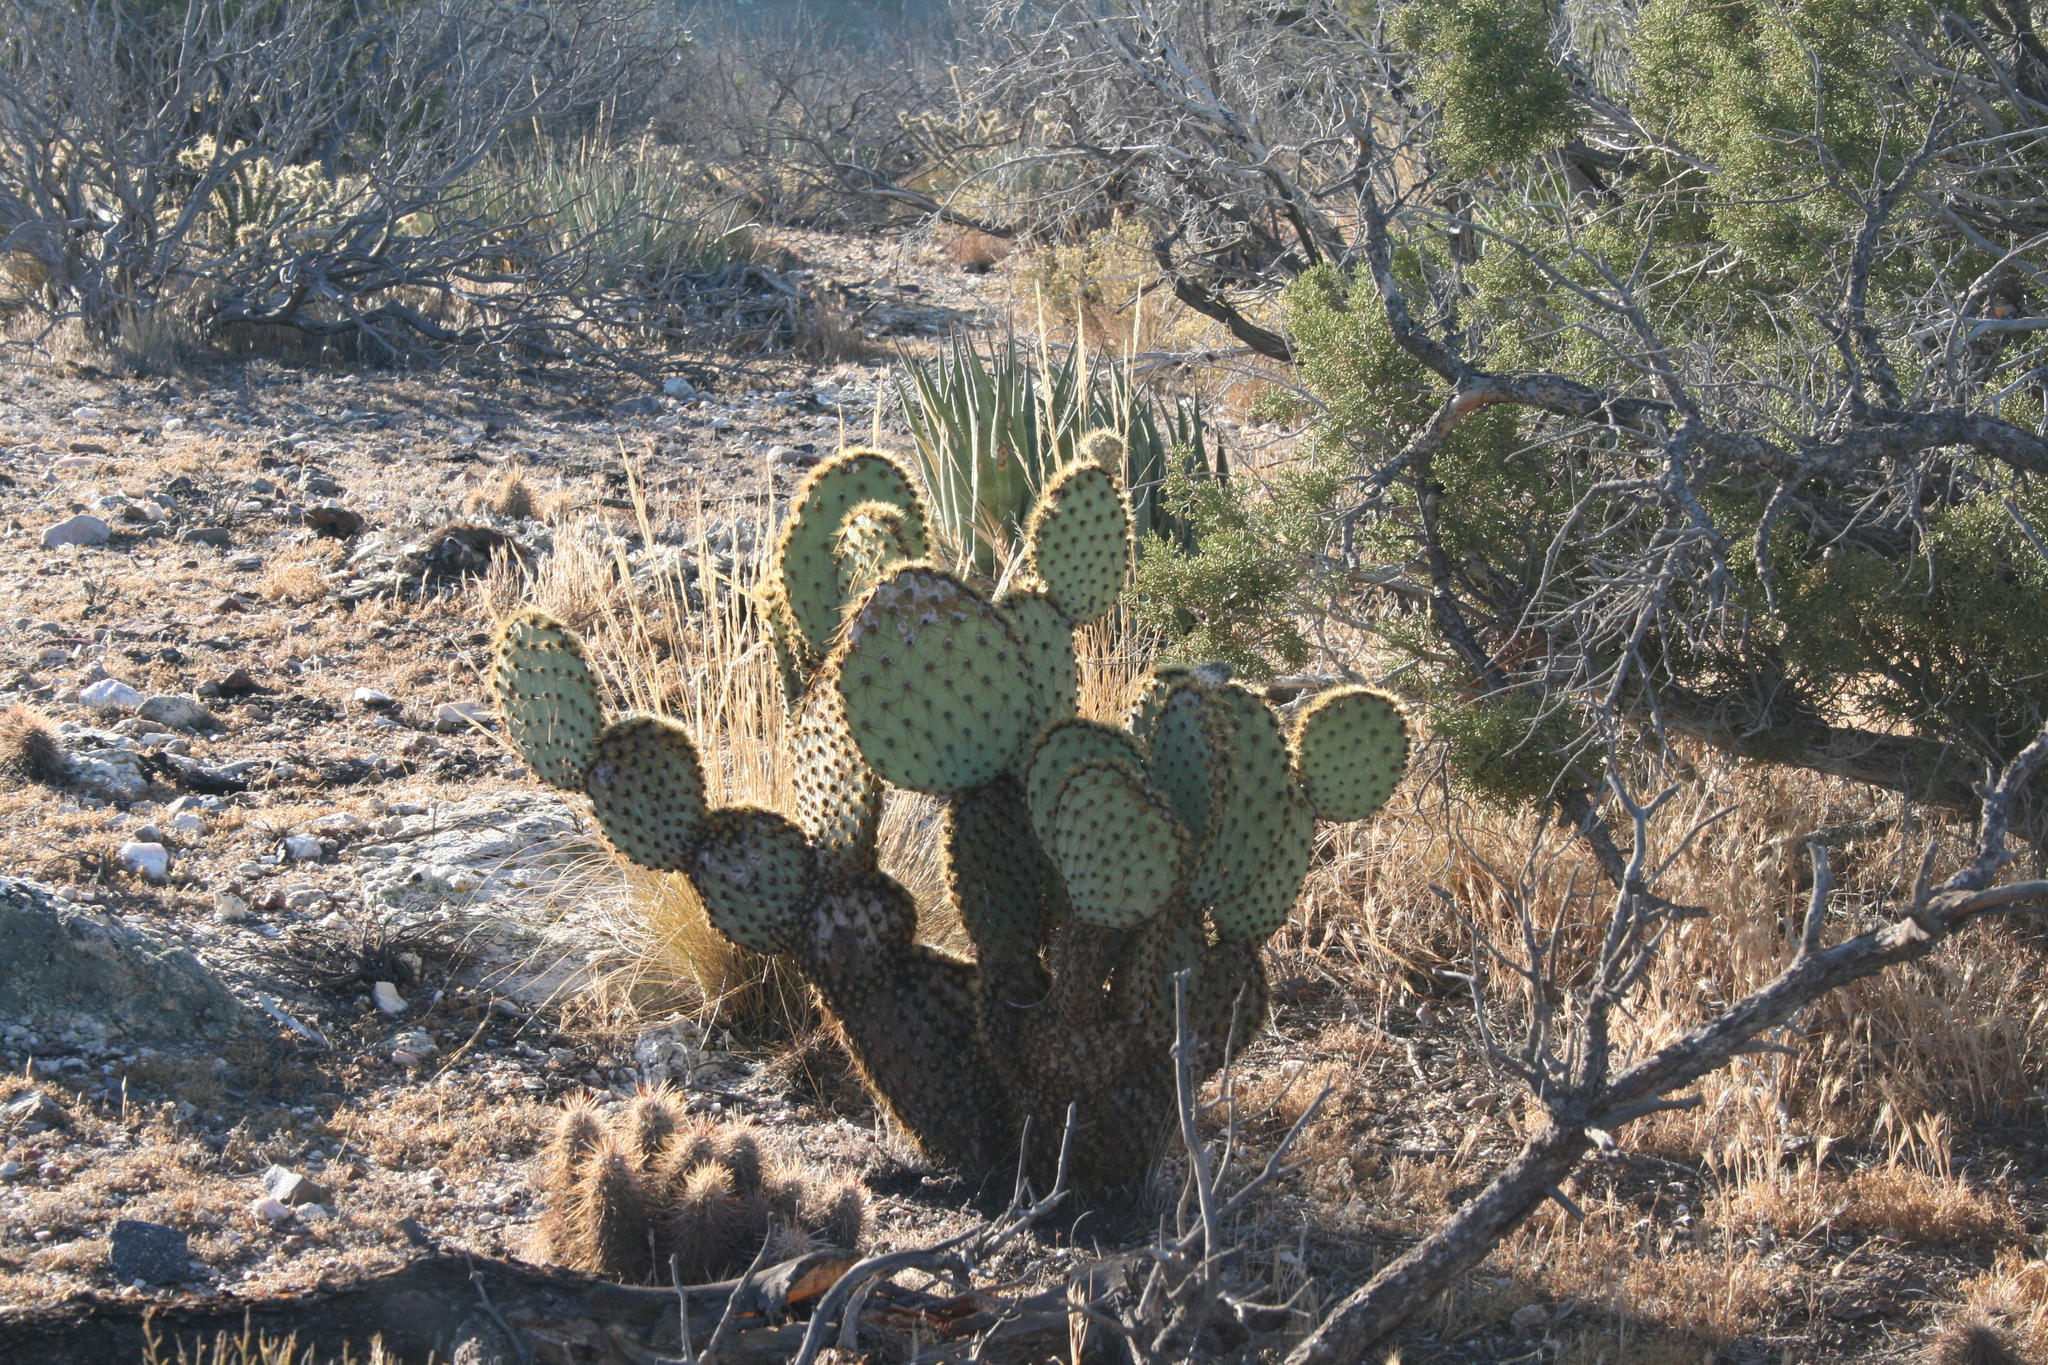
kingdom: Plantae
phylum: Tracheophyta
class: Magnoliopsida
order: Caryophyllales
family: Cactaceae
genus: Opuntia
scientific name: Opuntia chlorotica
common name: Dollar-joint prickly-pear
